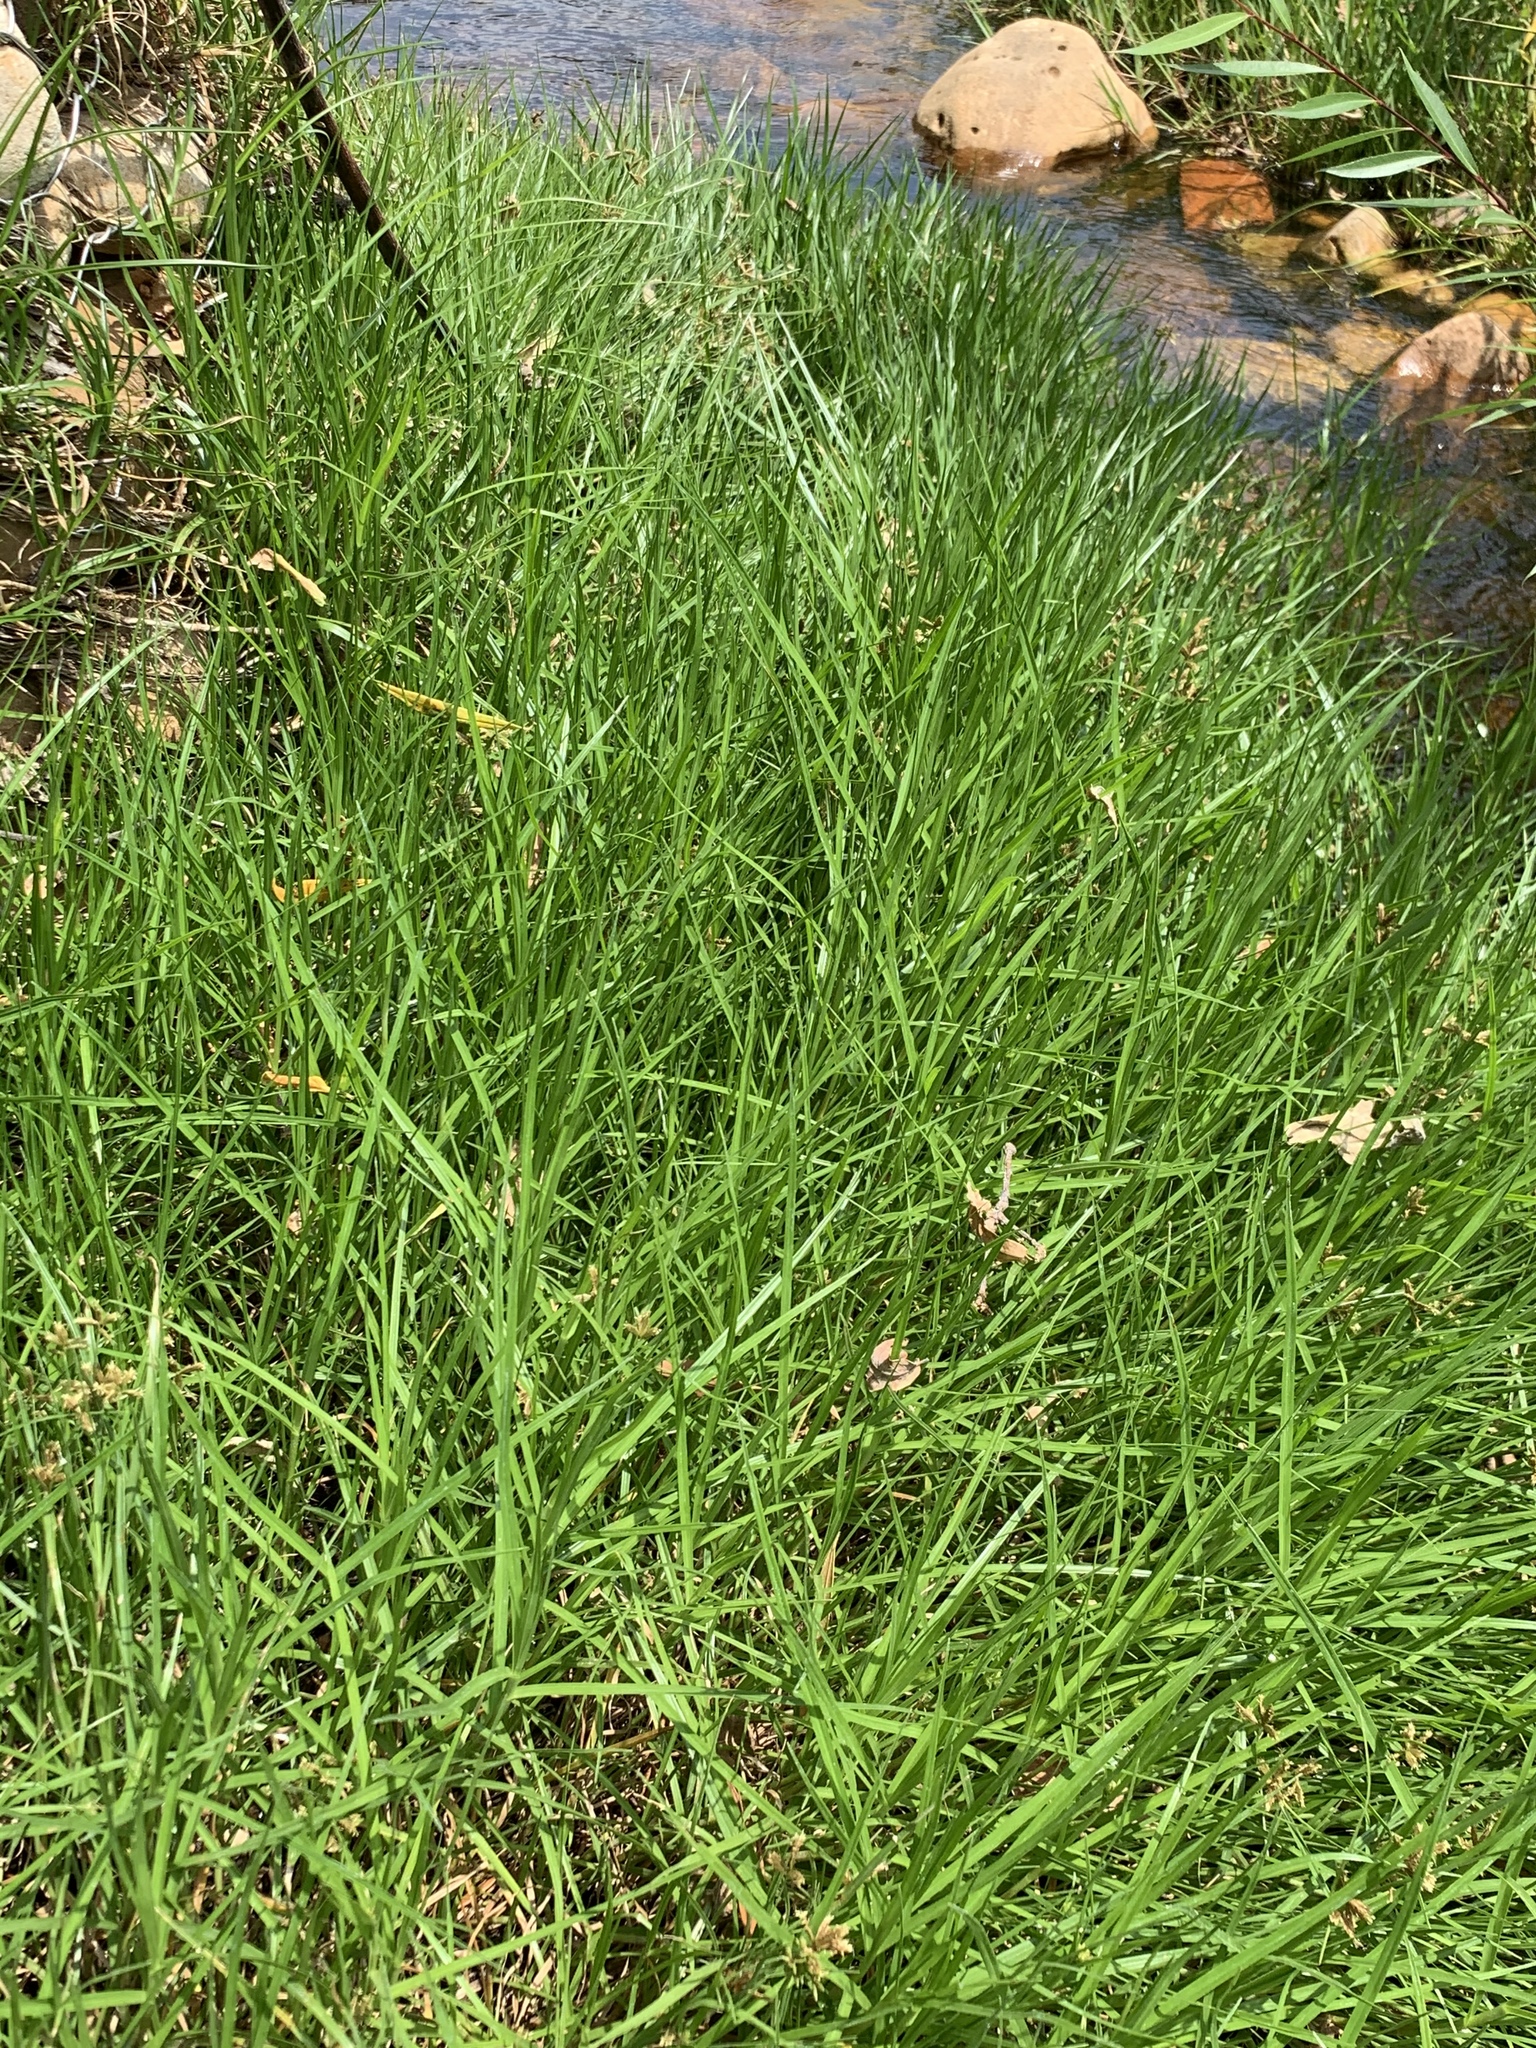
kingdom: Plantae
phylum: Tracheophyta
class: Liliopsida
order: Poales
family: Poaceae
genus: Cenchrus
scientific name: Cenchrus clandestinus
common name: Kikuyugrass
